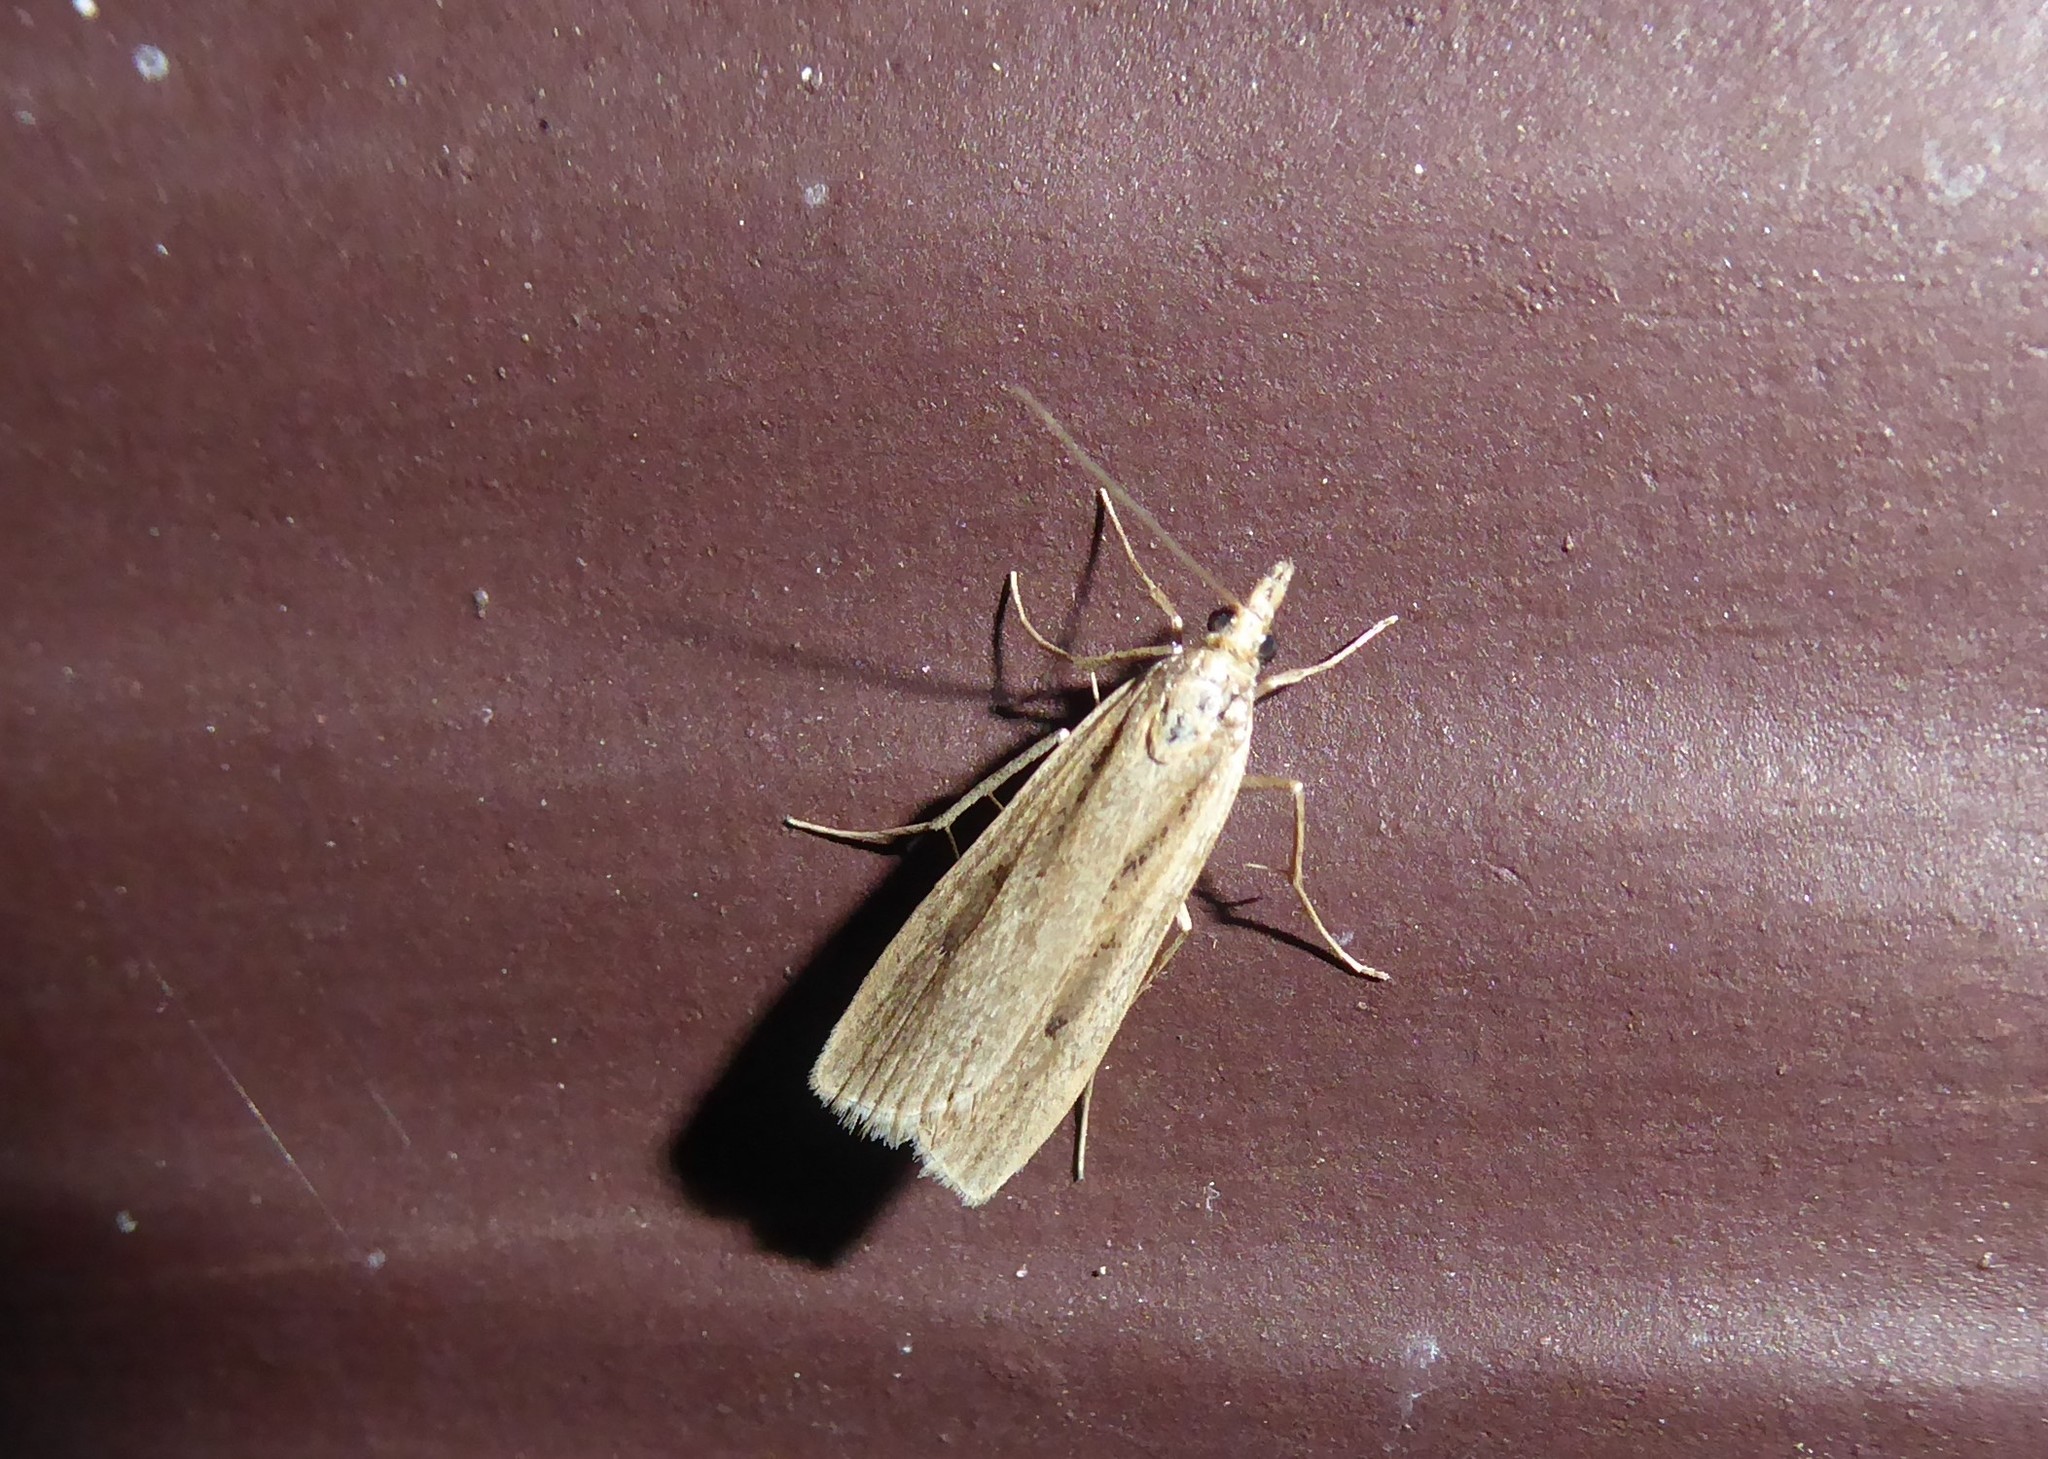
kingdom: Animalia
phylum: Arthropoda
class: Insecta
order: Lepidoptera
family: Crambidae
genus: Eudonia
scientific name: Eudonia sabulosella
